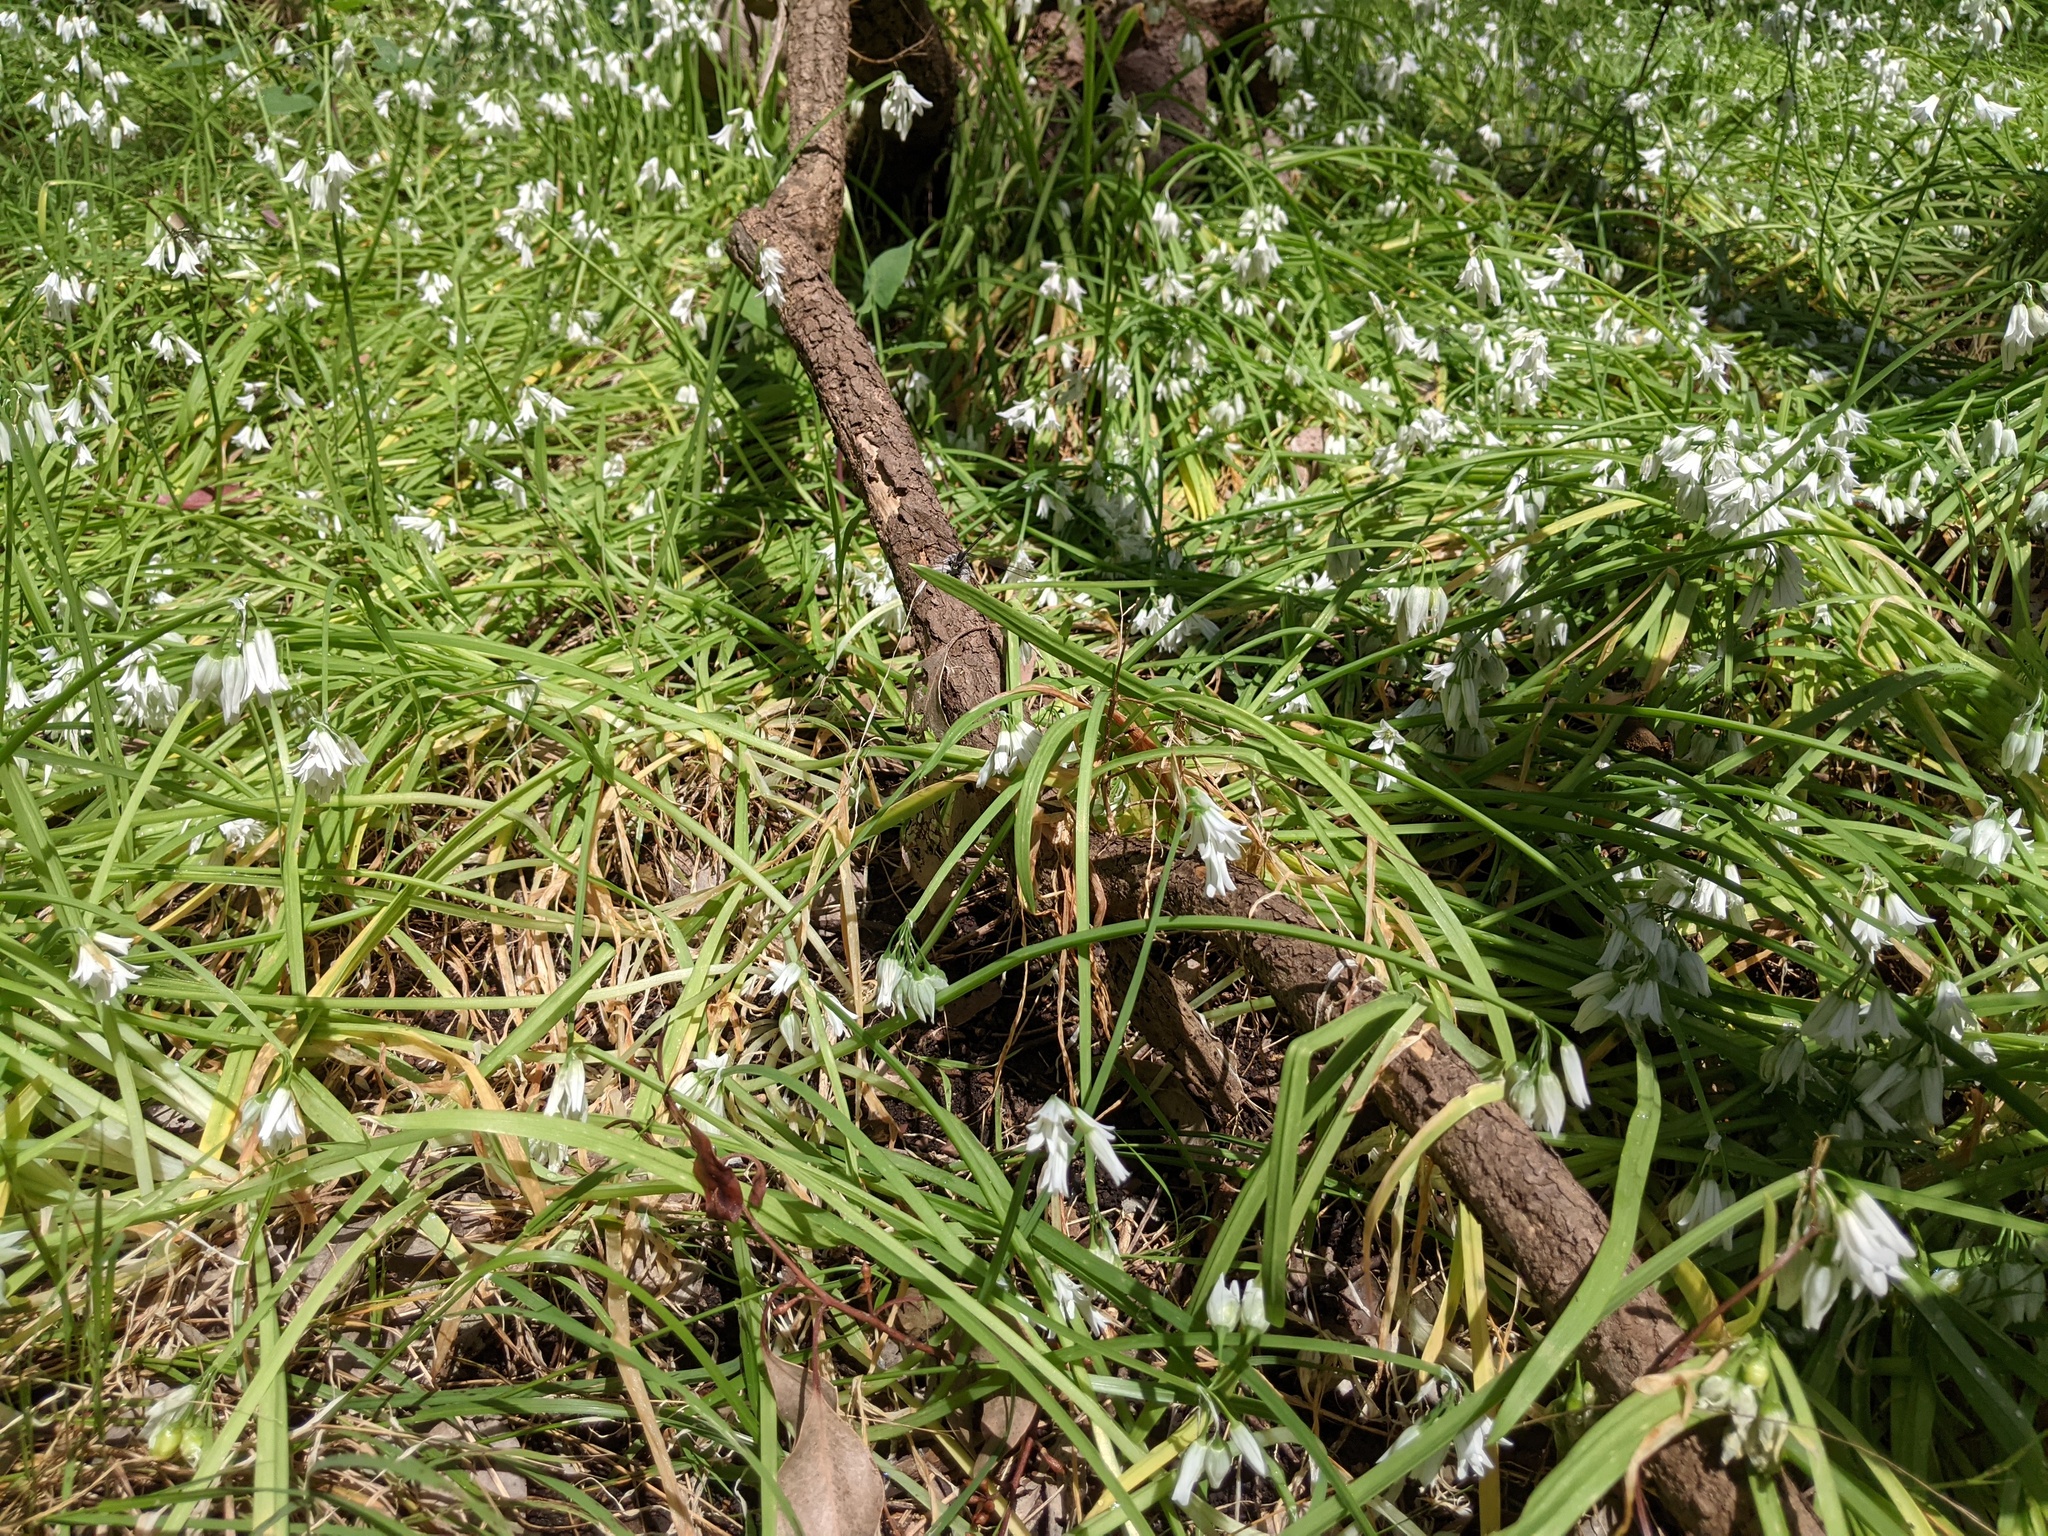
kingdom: Plantae
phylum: Tracheophyta
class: Liliopsida
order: Asparagales
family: Amaryllidaceae
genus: Allium
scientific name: Allium triquetrum
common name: Three-cornered garlic
